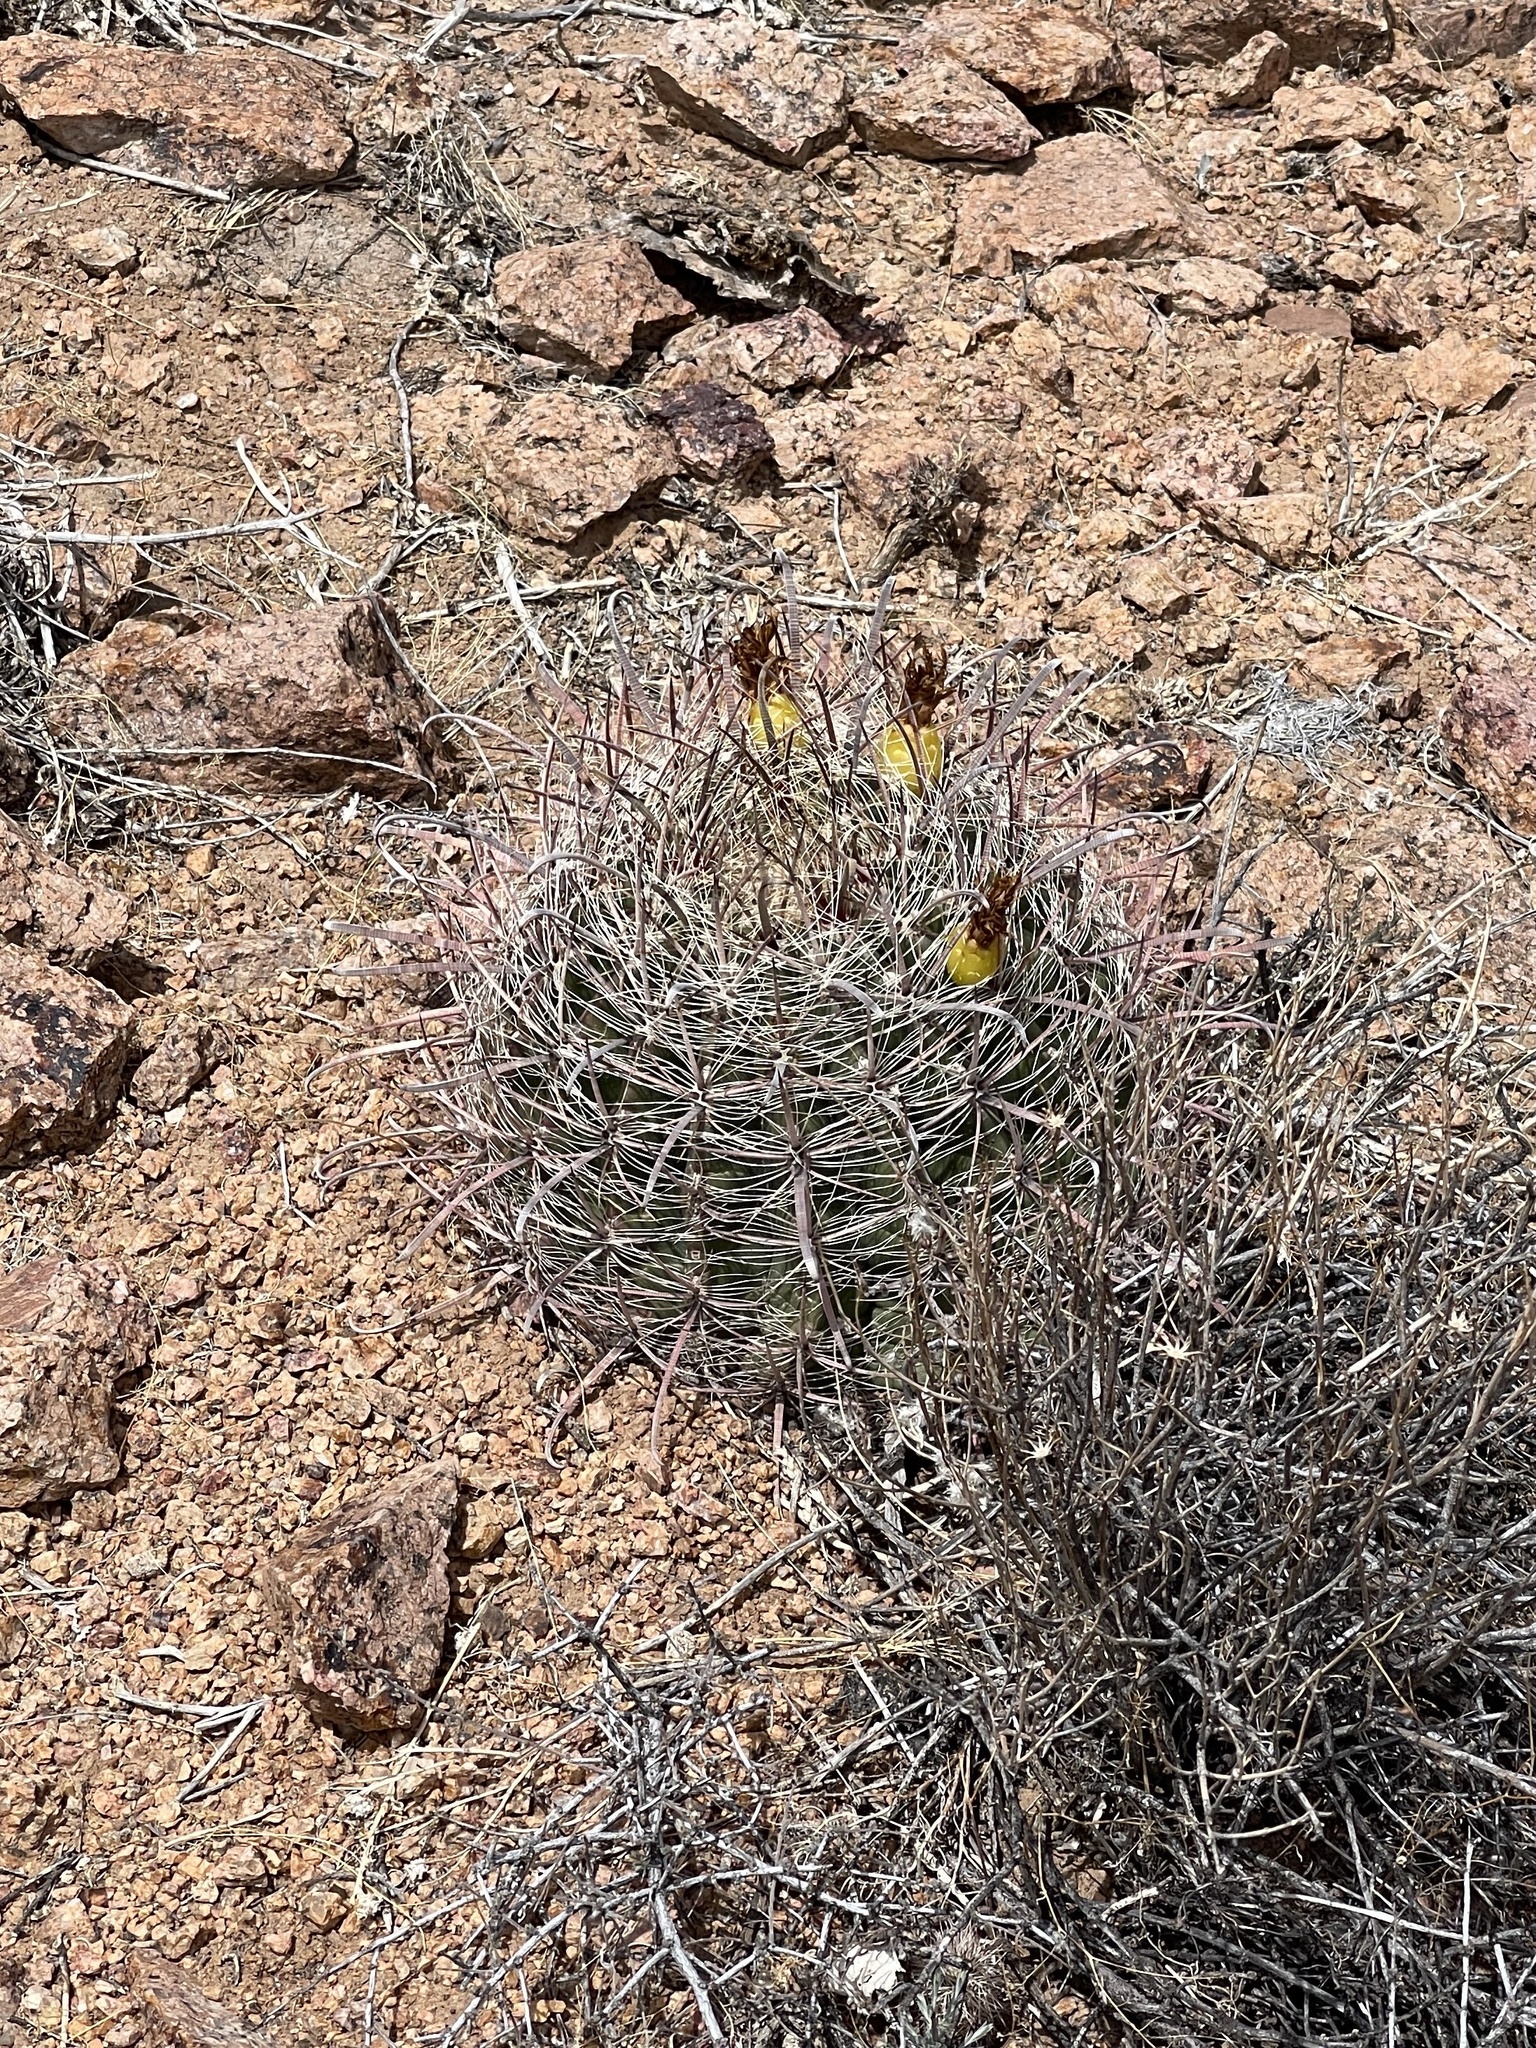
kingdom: Plantae
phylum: Tracheophyta
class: Magnoliopsida
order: Caryophyllales
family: Cactaceae
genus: Ferocactus
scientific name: Ferocactus wislizeni
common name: Candy barrel cactus
